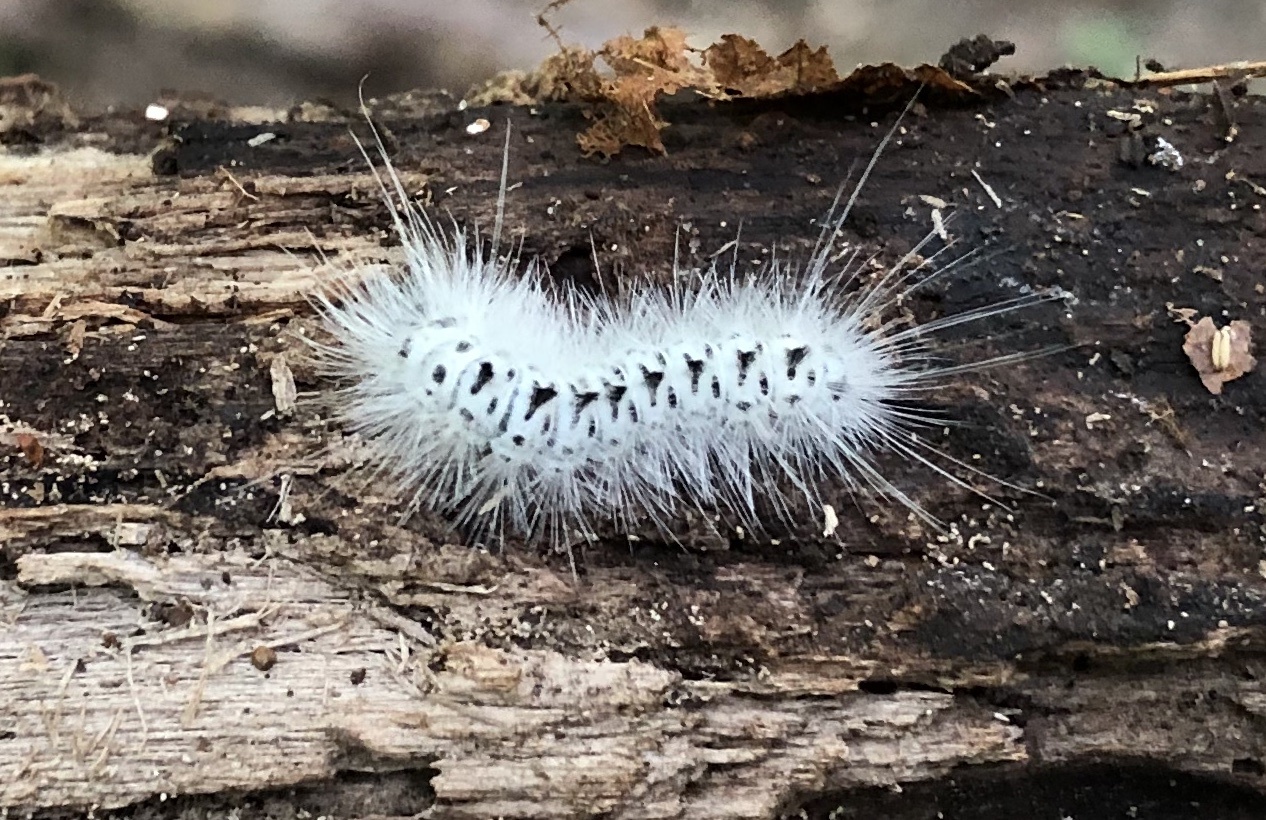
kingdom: Animalia
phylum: Arthropoda
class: Insecta
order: Lepidoptera
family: Erebidae
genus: Lophocampa
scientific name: Lophocampa caryae
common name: Hickory tussock moth
